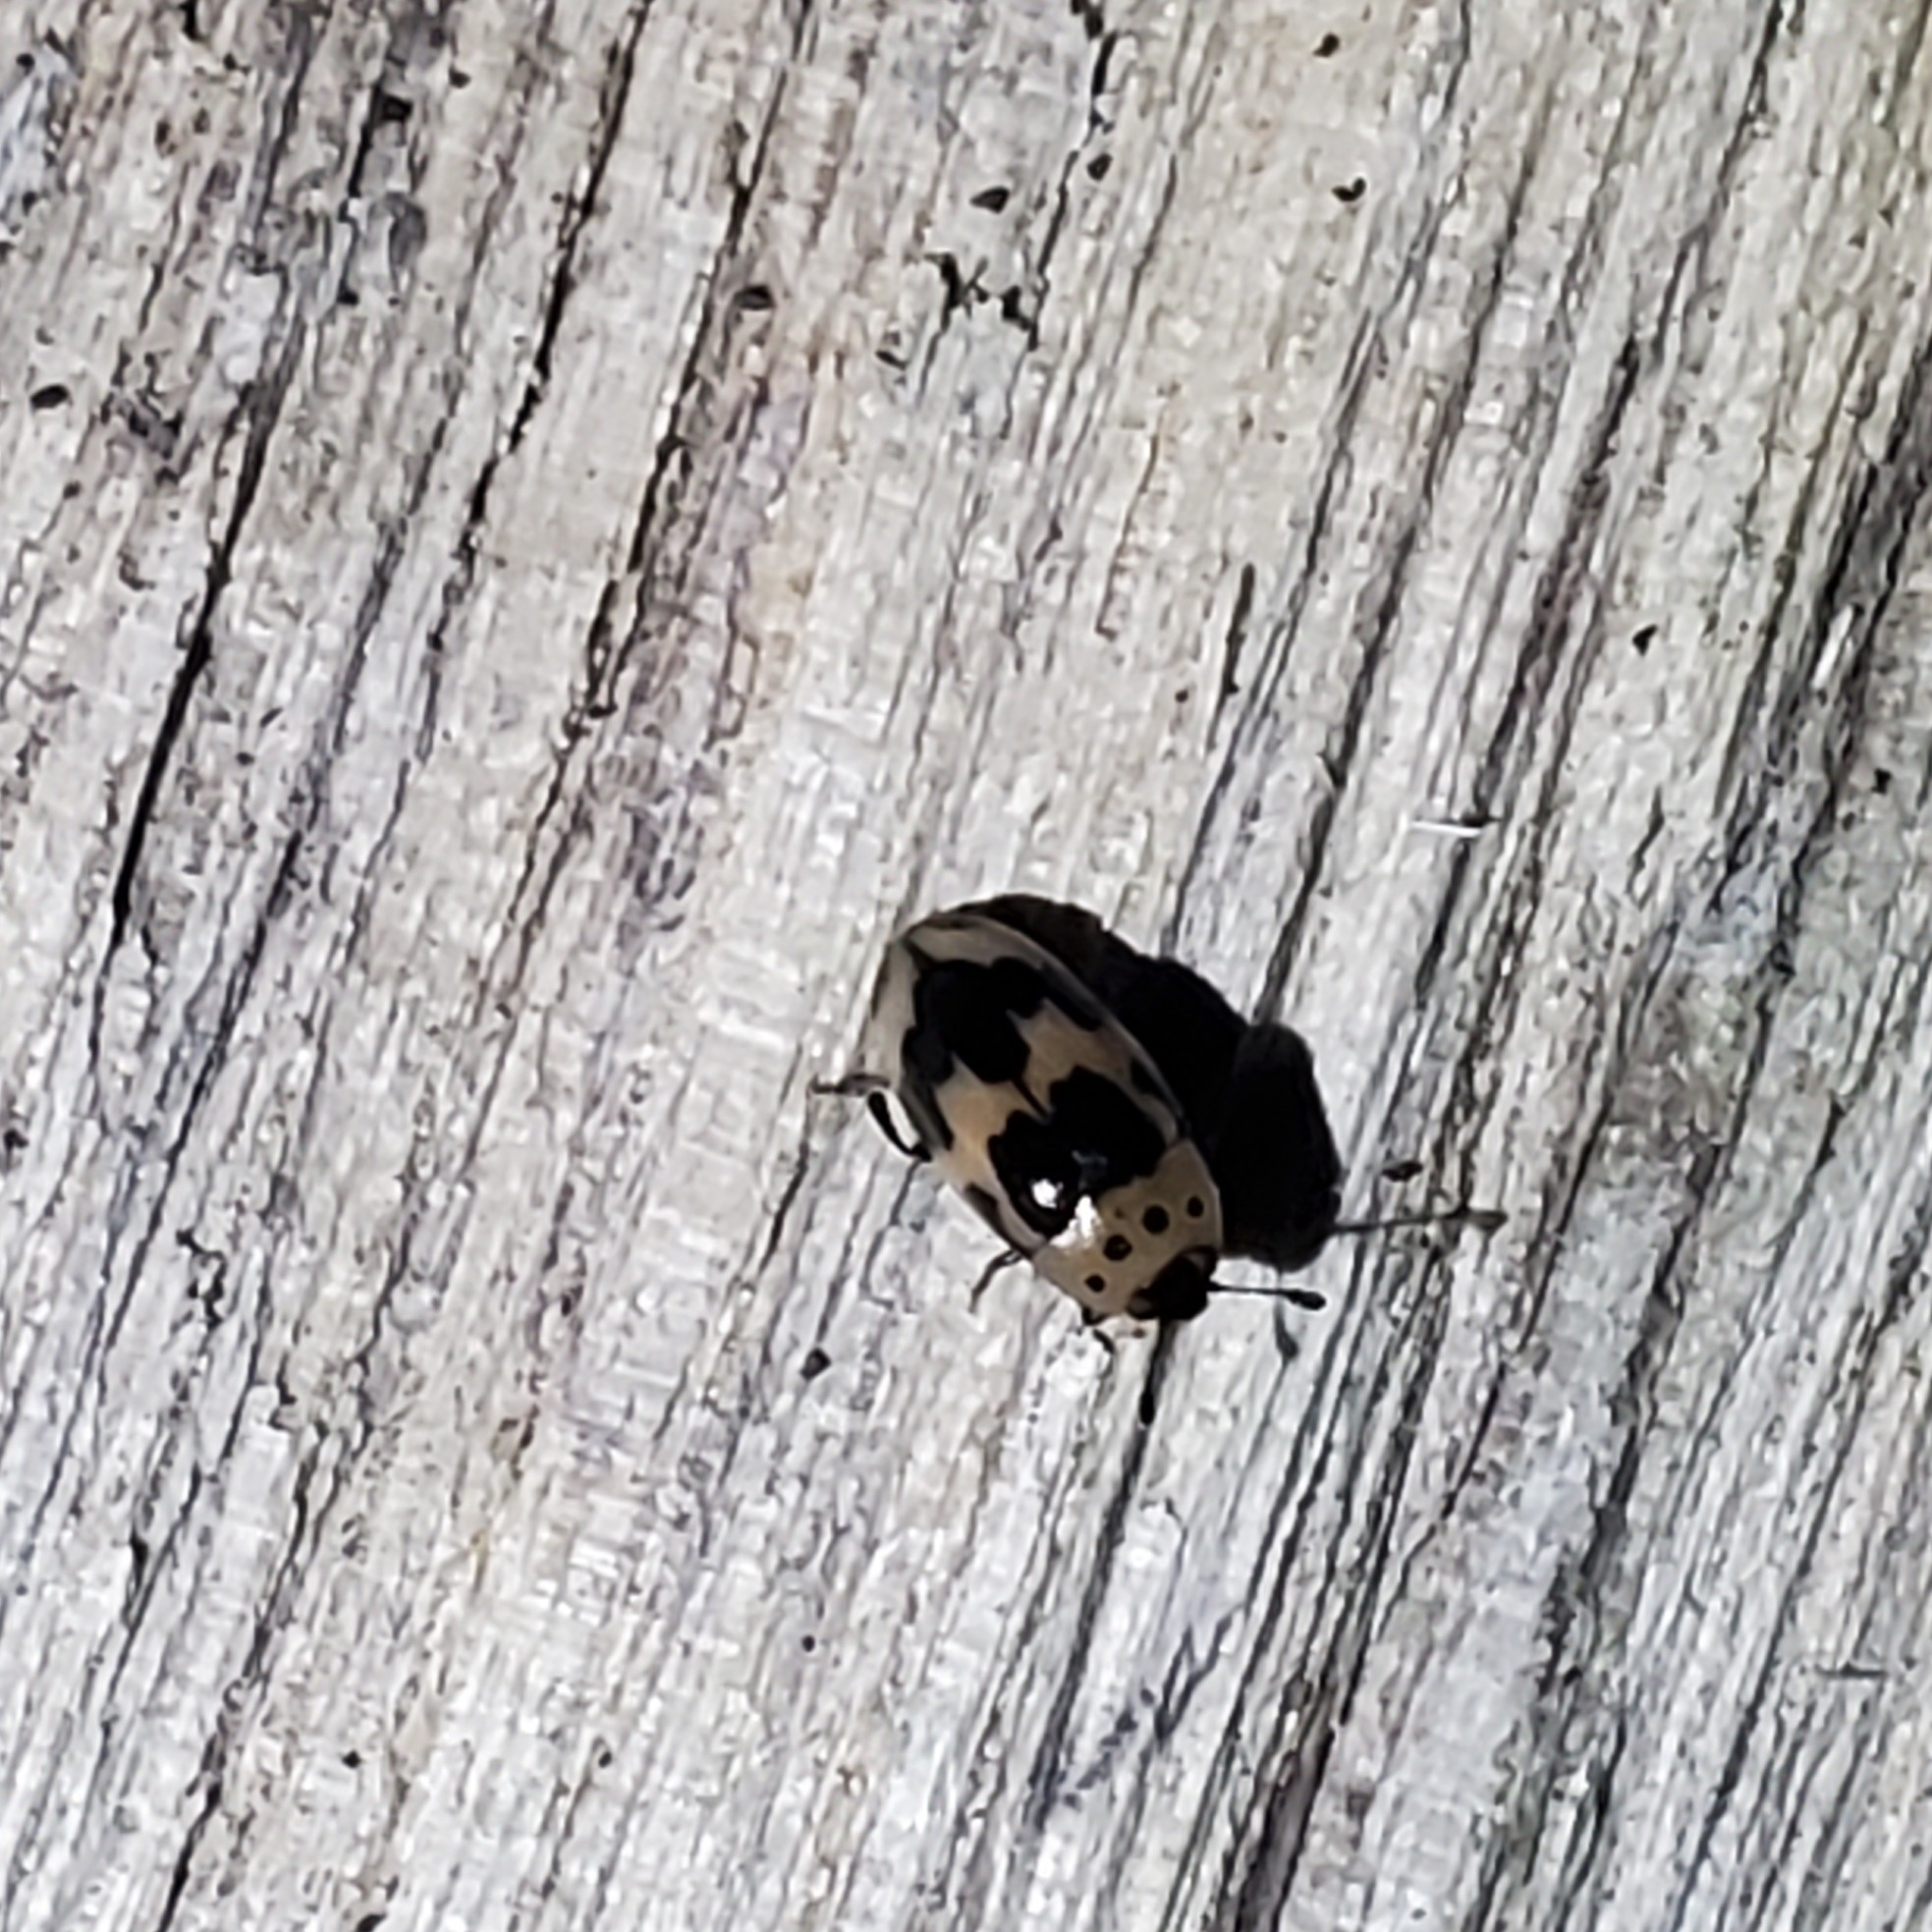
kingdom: Animalia
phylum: Arthropoda
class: Insecta
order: Coleoptera
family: Erotylidae
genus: Ischyrus
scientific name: Ischyrus quadripunctatus
